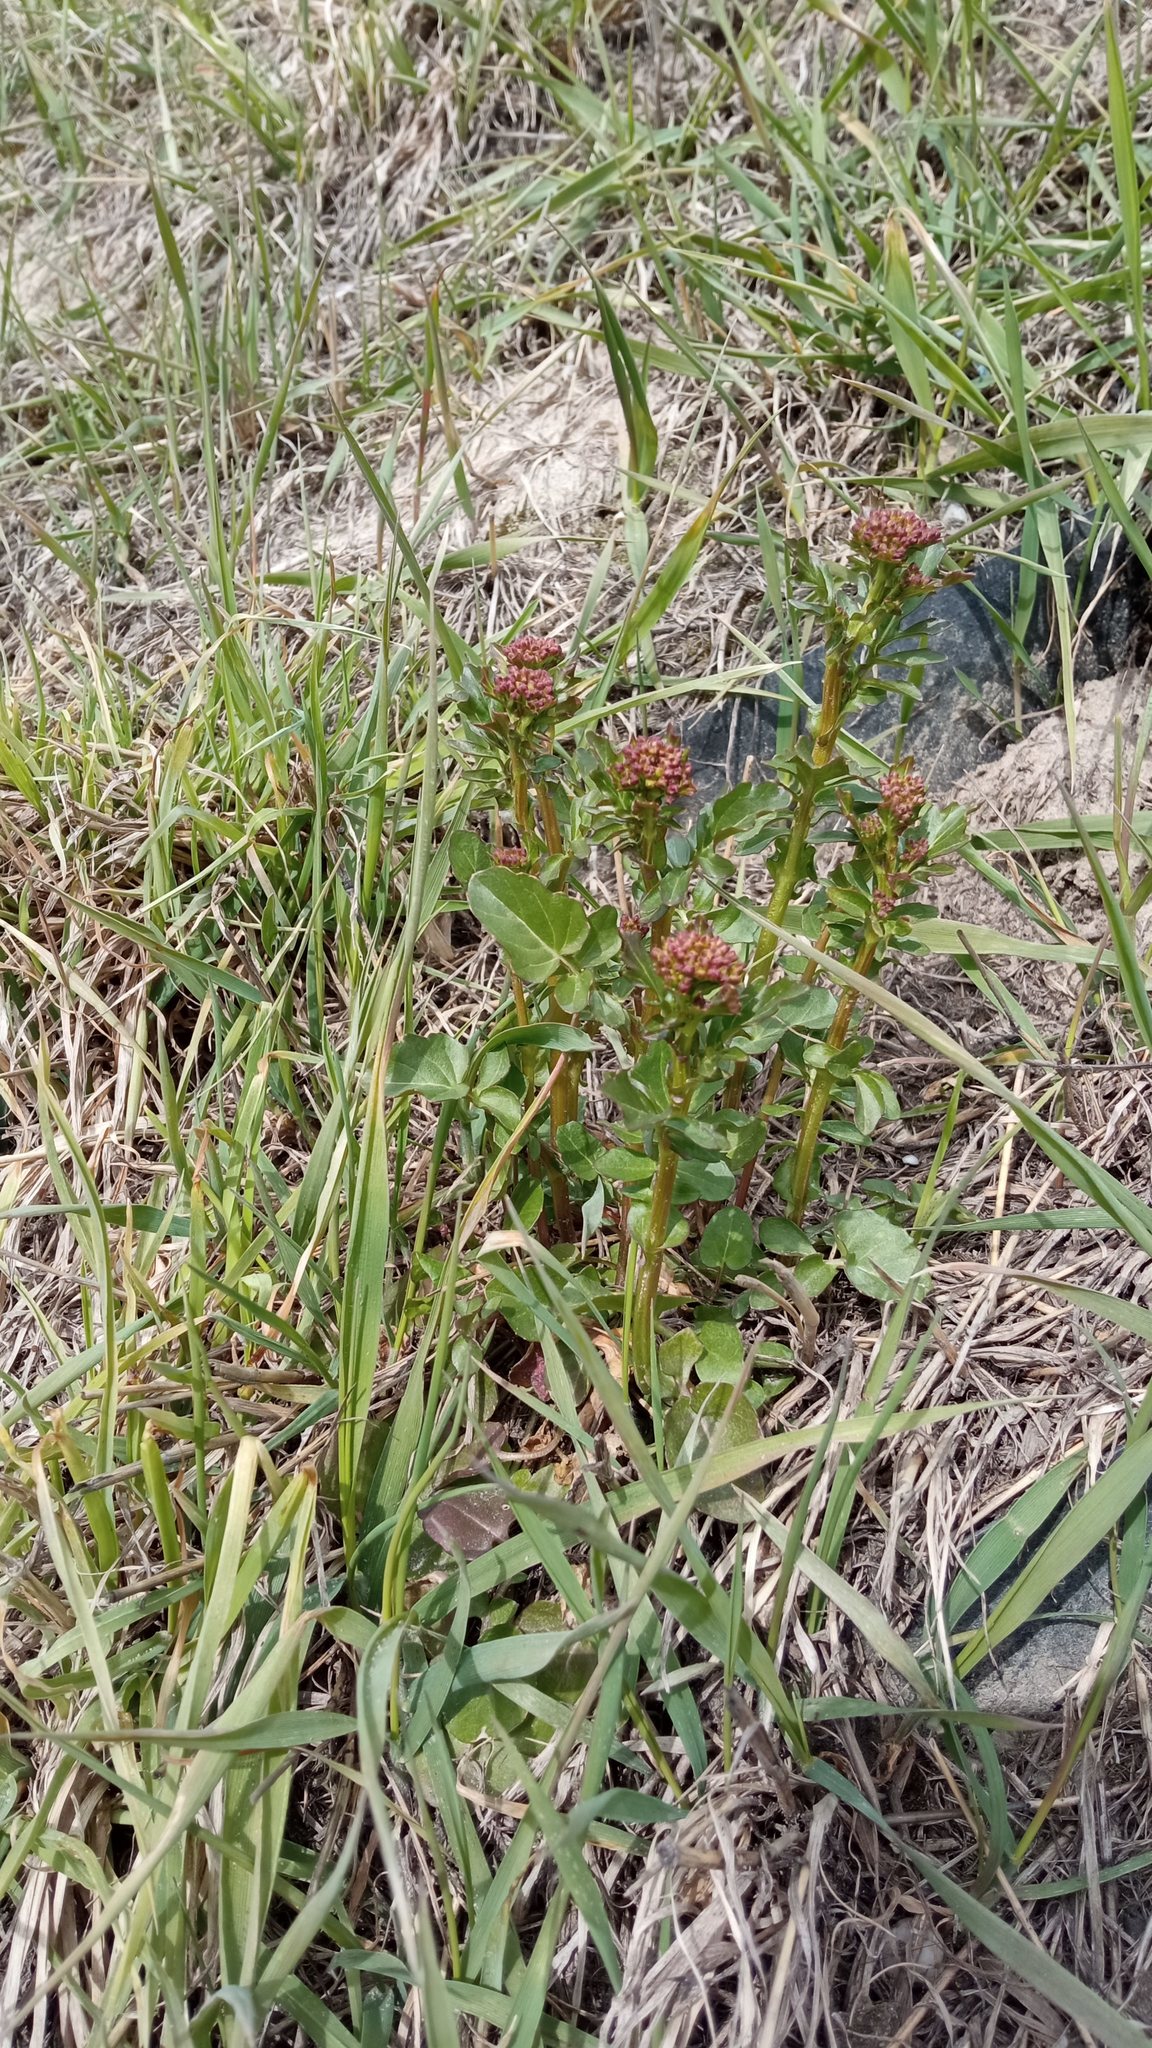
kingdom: Plantae
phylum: Tracheophyta
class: Magnoliopsida
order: Brassicales
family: Brassicaceae
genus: Barbarea
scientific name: Barbarea vulgaris
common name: Cressy-greens
